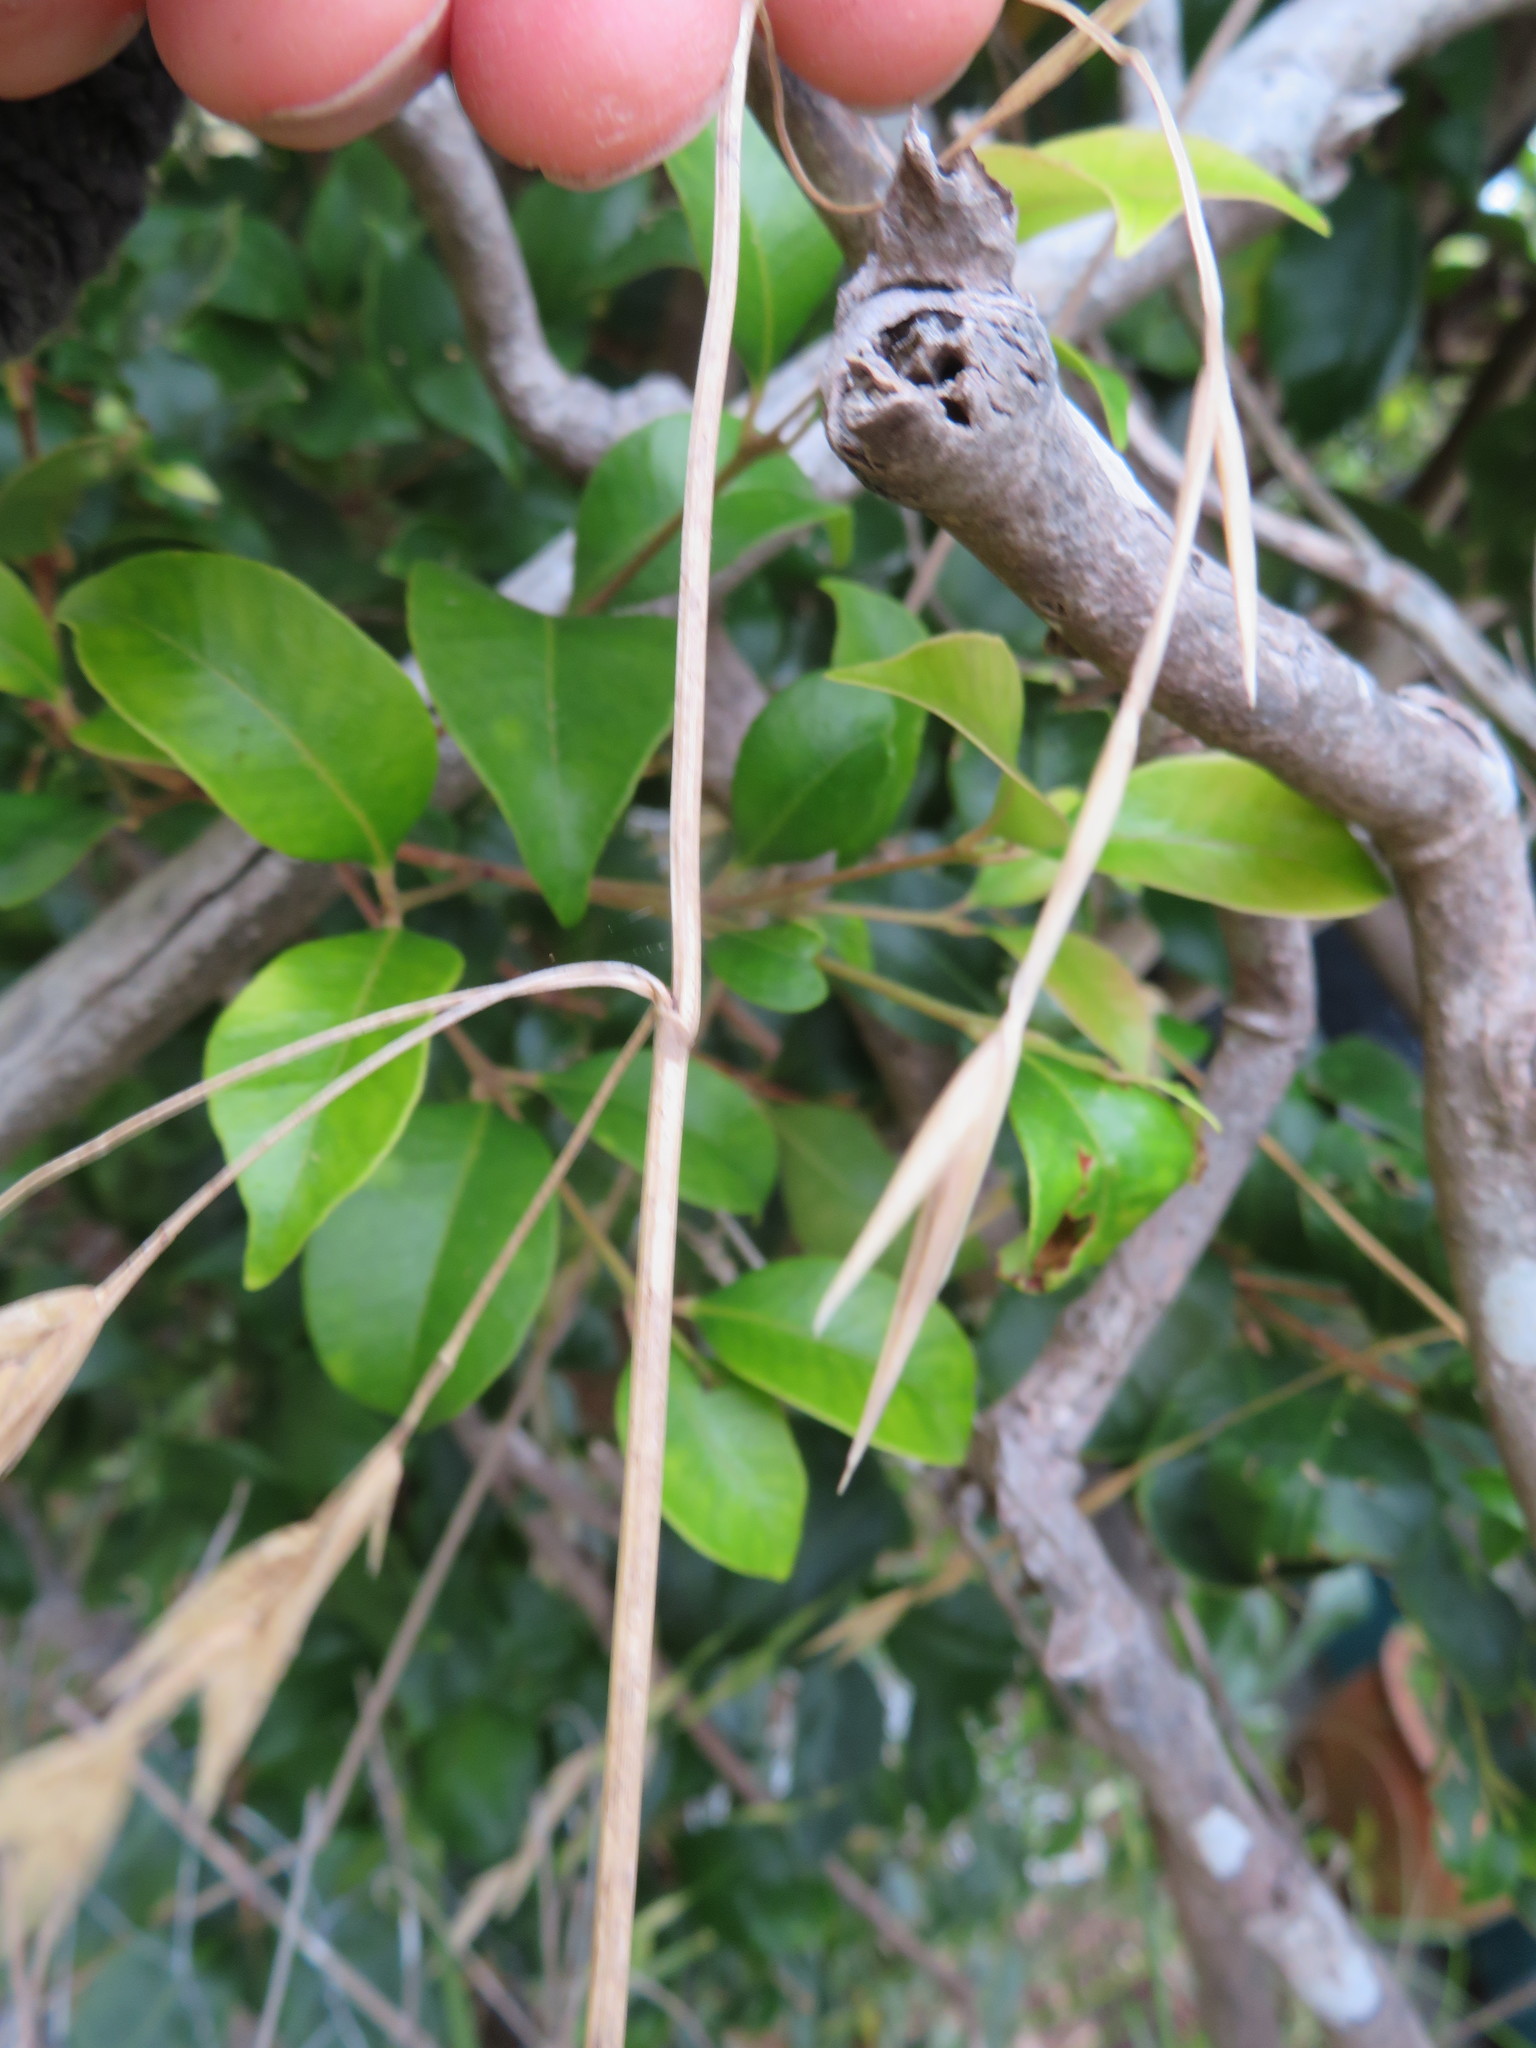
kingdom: Plantae
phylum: Tracheophyta
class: Liliopsida
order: Poales
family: Poaceae
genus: Bromus
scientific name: Bromus catharticus
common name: Rescuegrass
